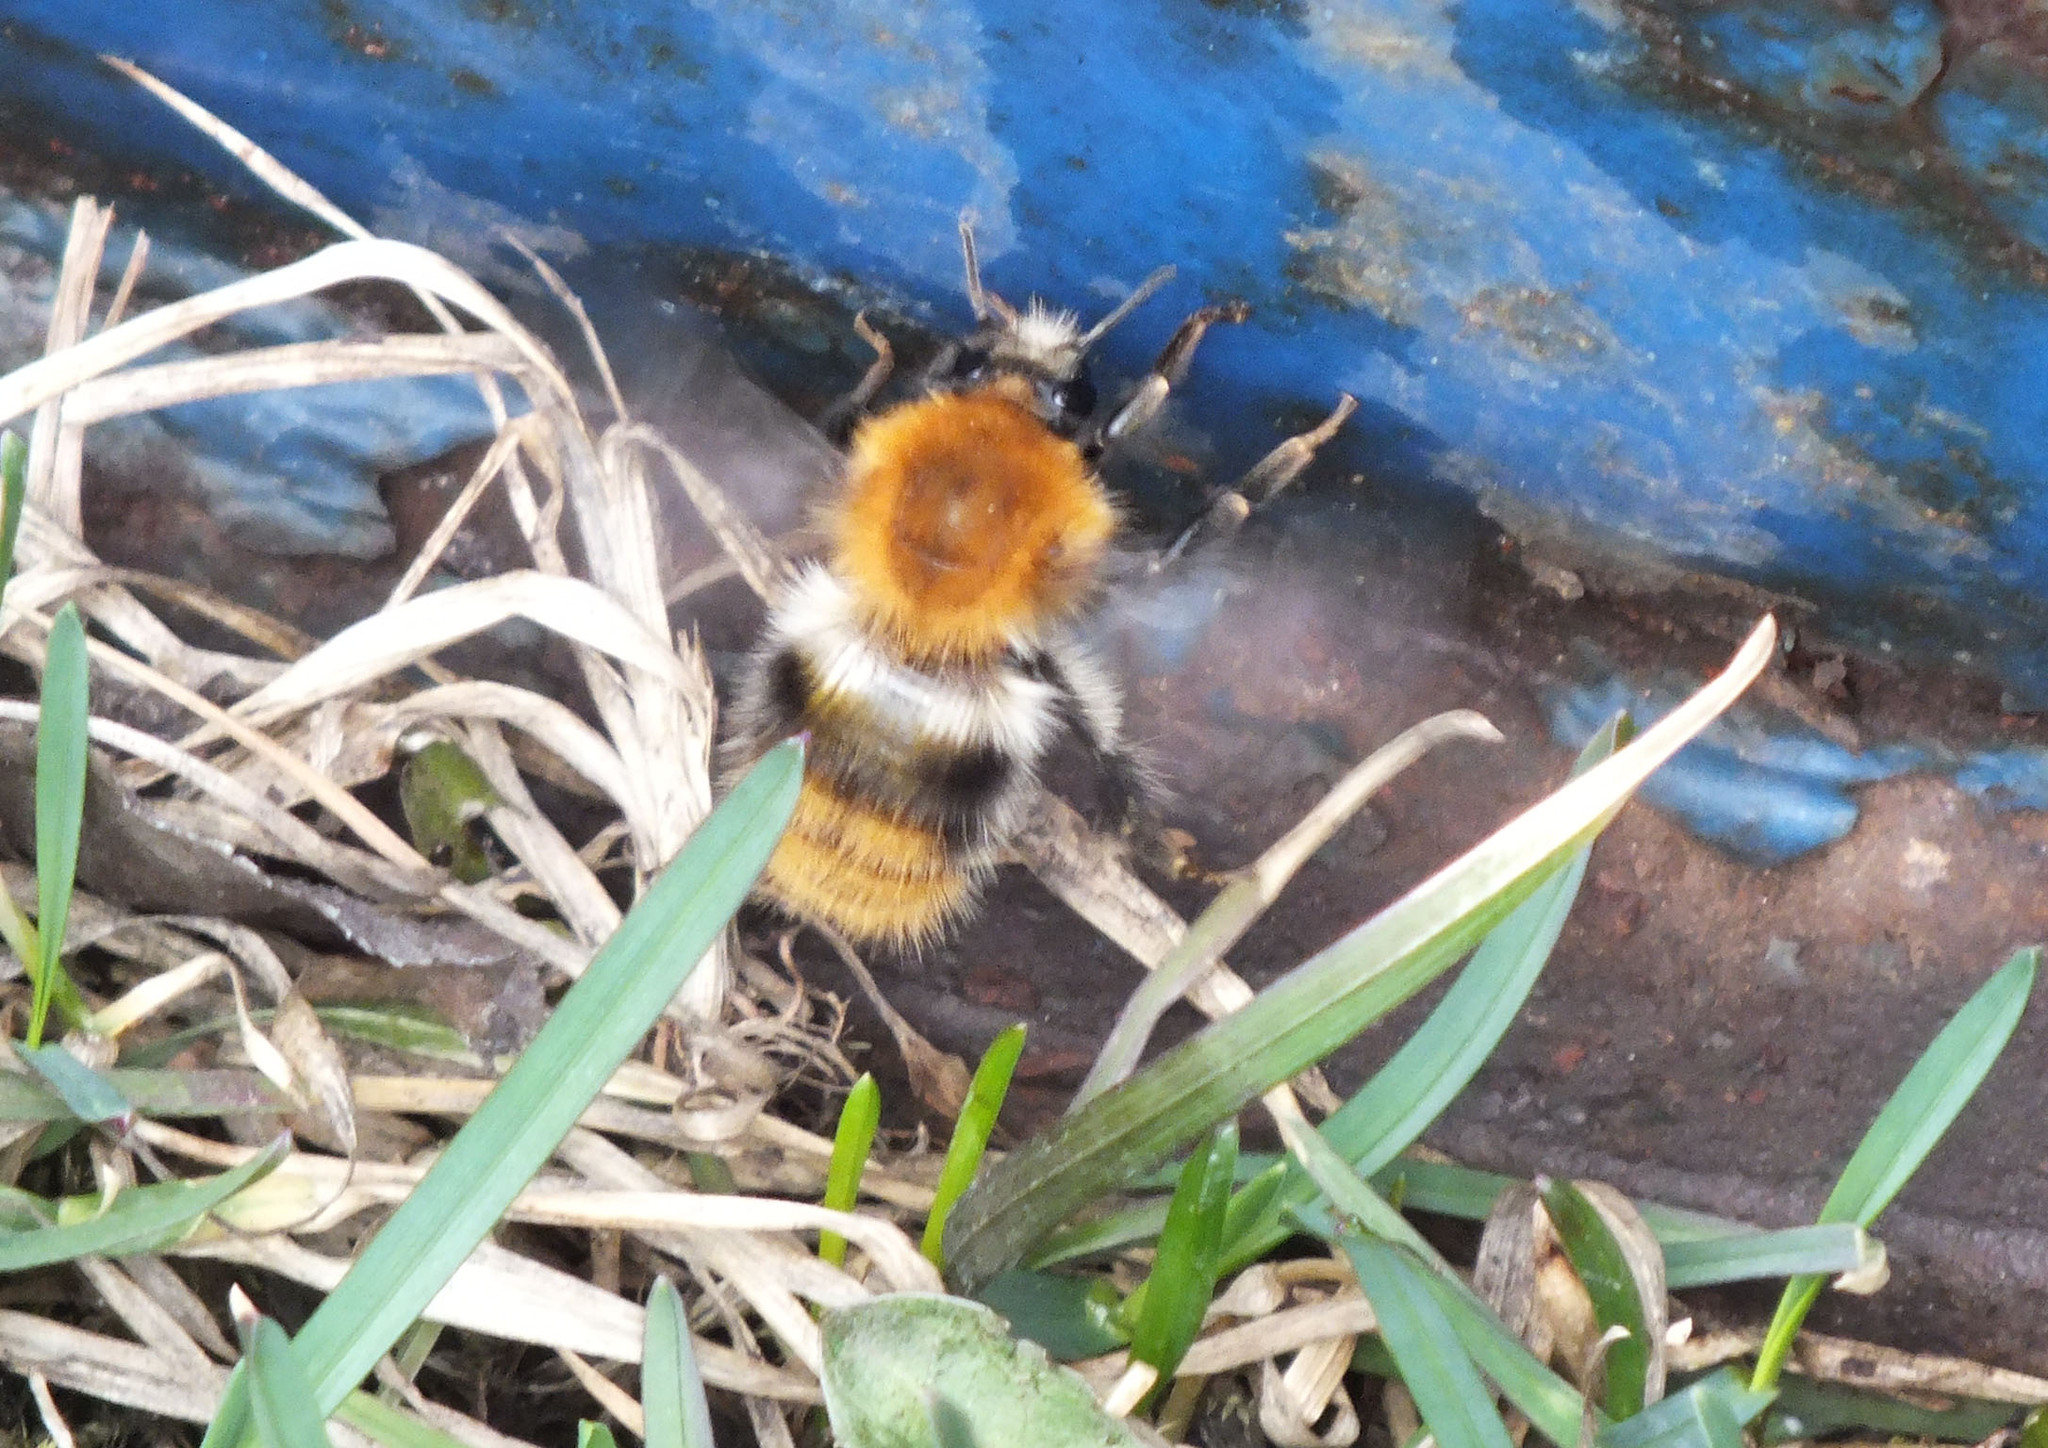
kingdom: Animalia
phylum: Arthropoda
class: Insecta
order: Hymenoptera
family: Apidae
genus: Bombus
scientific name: Bombus pascuorum
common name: Common carder bee
